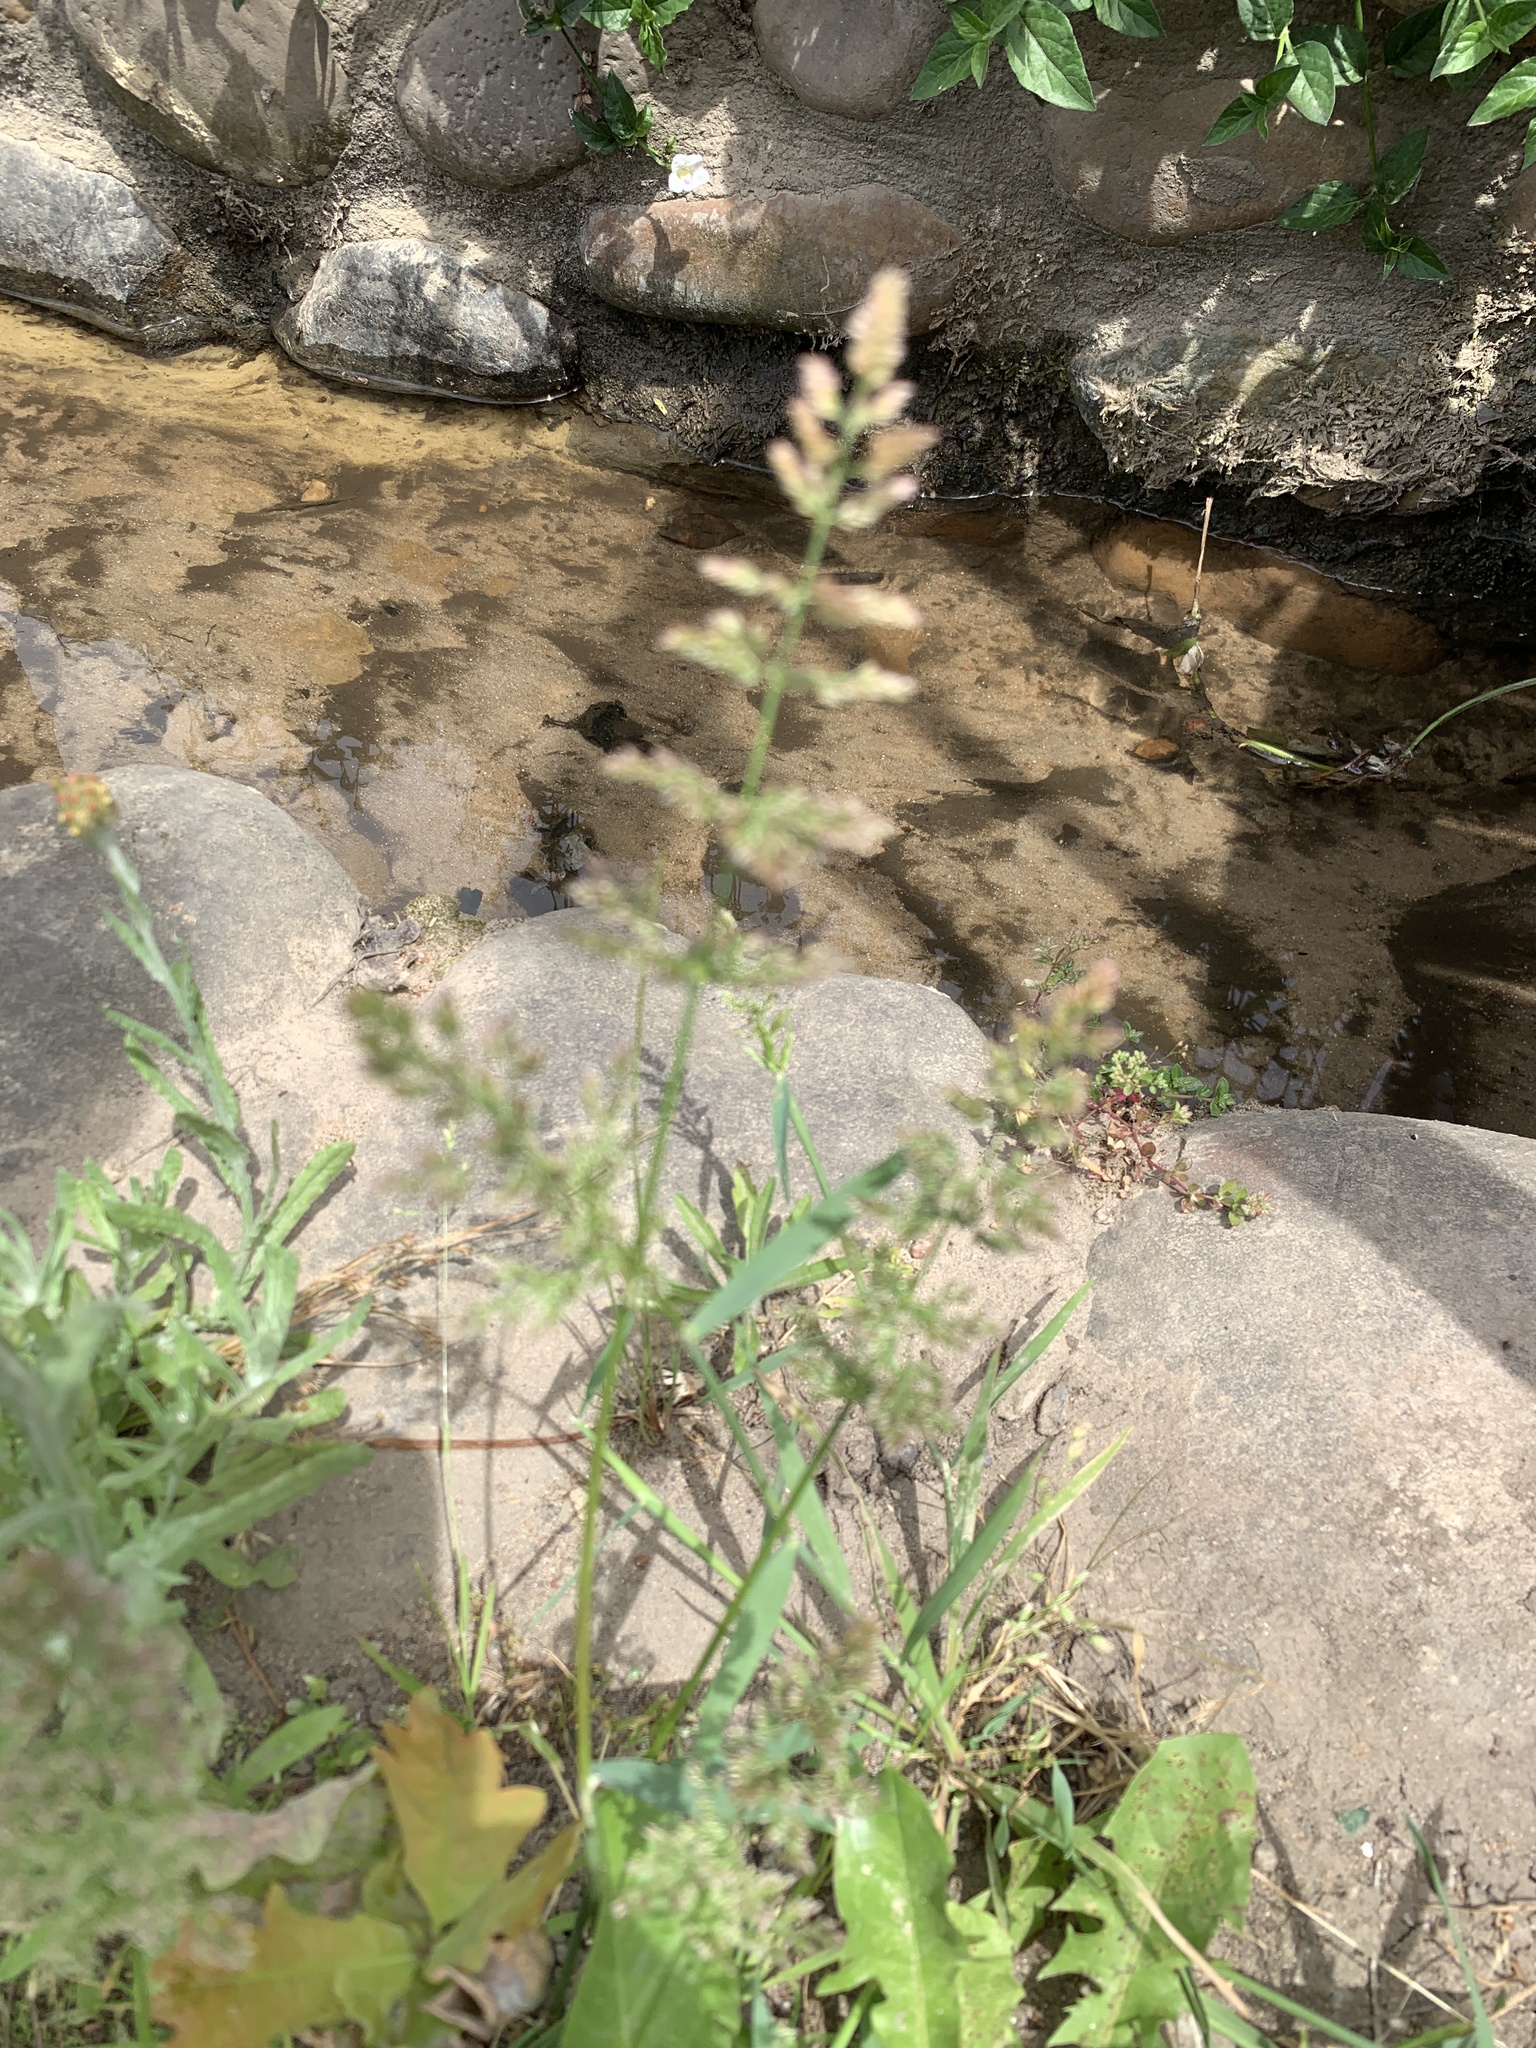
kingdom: Plantae
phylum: Tracheophyta
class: Liliopsida
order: Poales
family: Poaceae
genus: Polypogon
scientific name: Polypogon viridis
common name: Water bent
